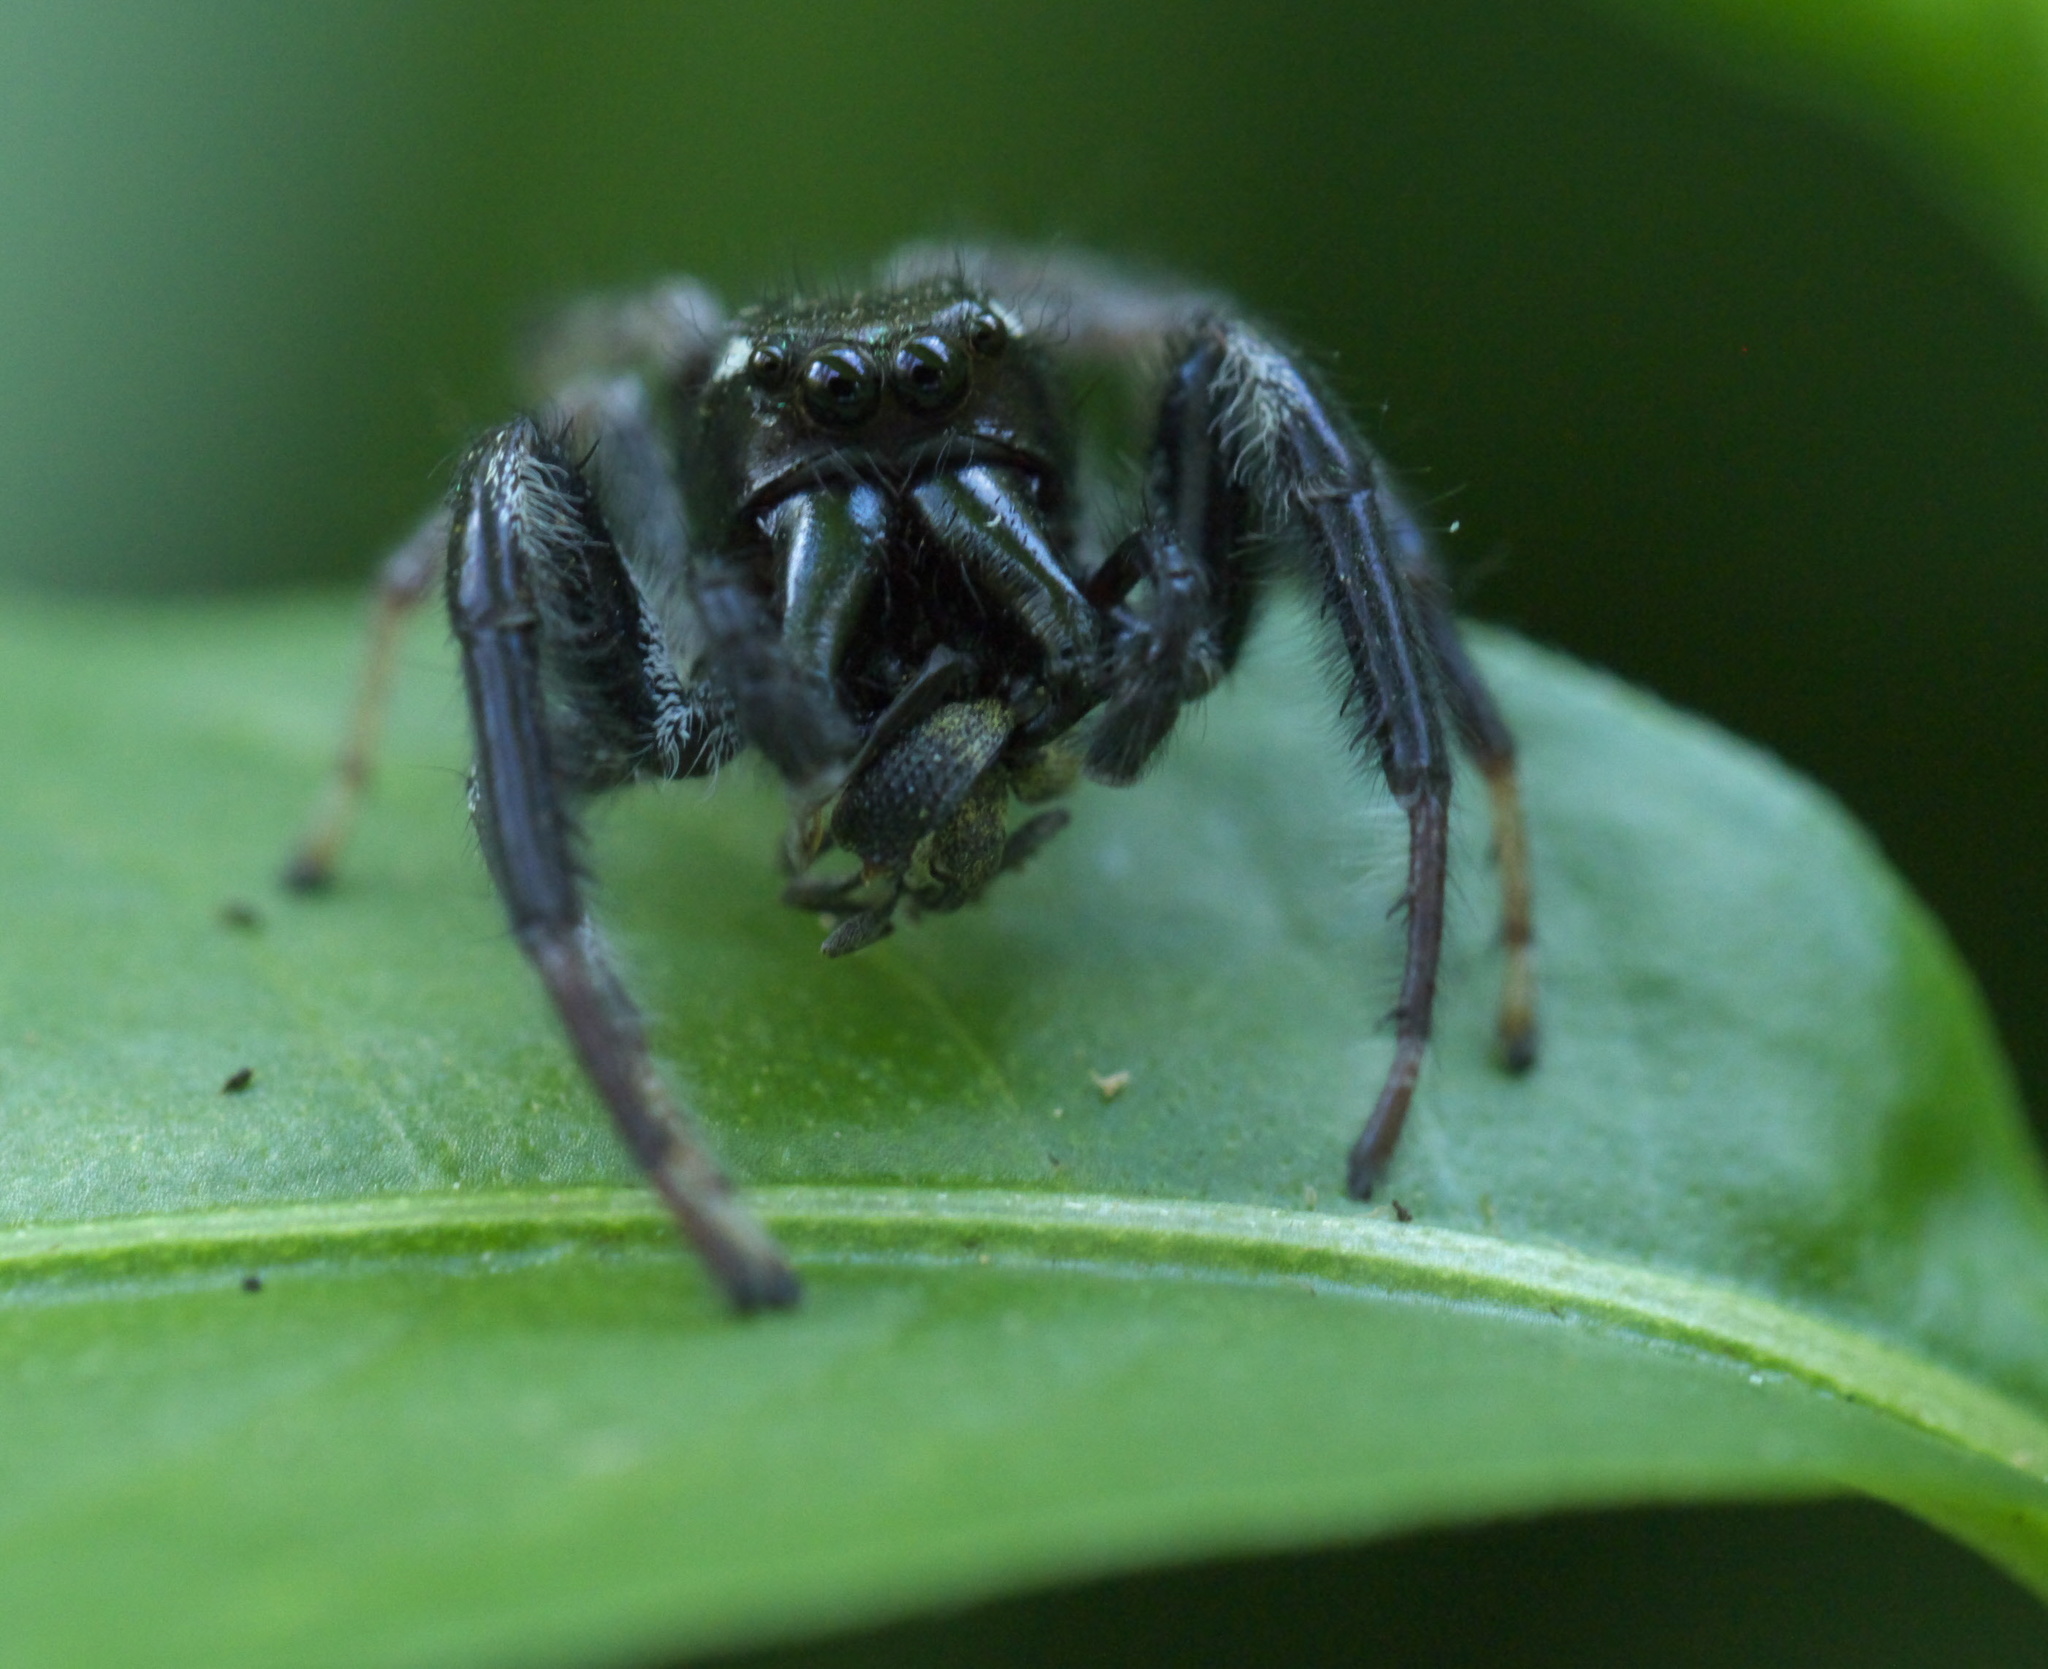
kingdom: Animalia
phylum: Arthropoda
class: Arachnida
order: Araneae
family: Salticidae
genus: Paraphidippus
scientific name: Paraphidippus aurantius
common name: Jumping spiders
